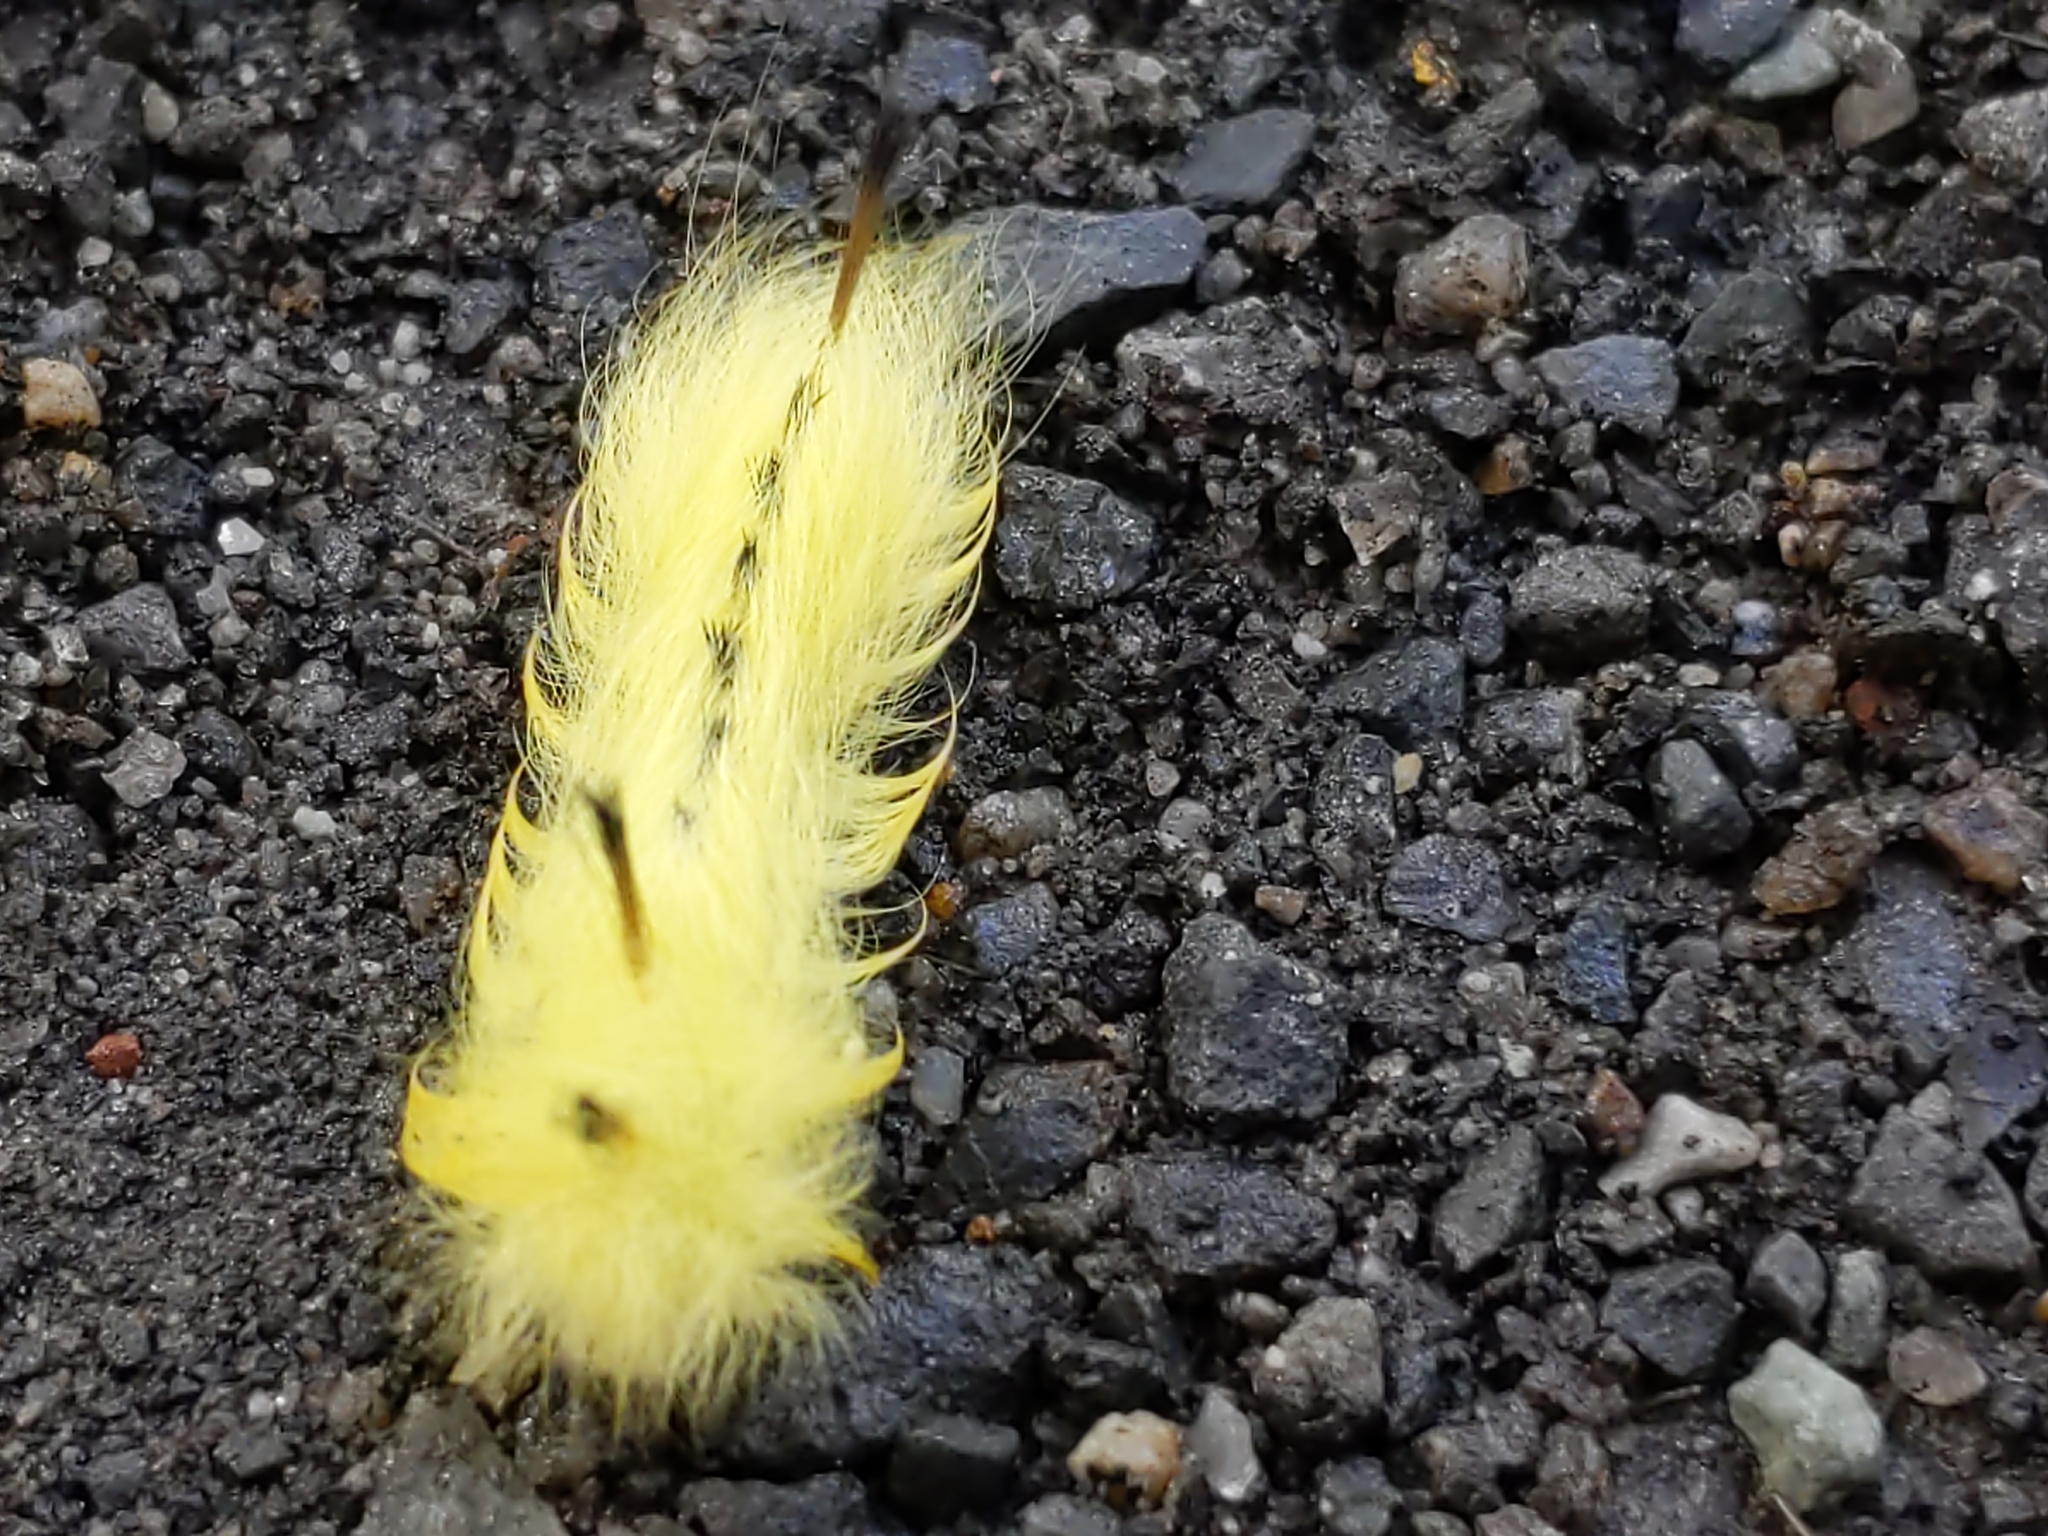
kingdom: Animalia
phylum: Arthropoda
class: Insecta
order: Lepidoptera
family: Apatelodidae
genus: Hygrochroa
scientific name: Hygrochroa Apatelodes torrefacta
